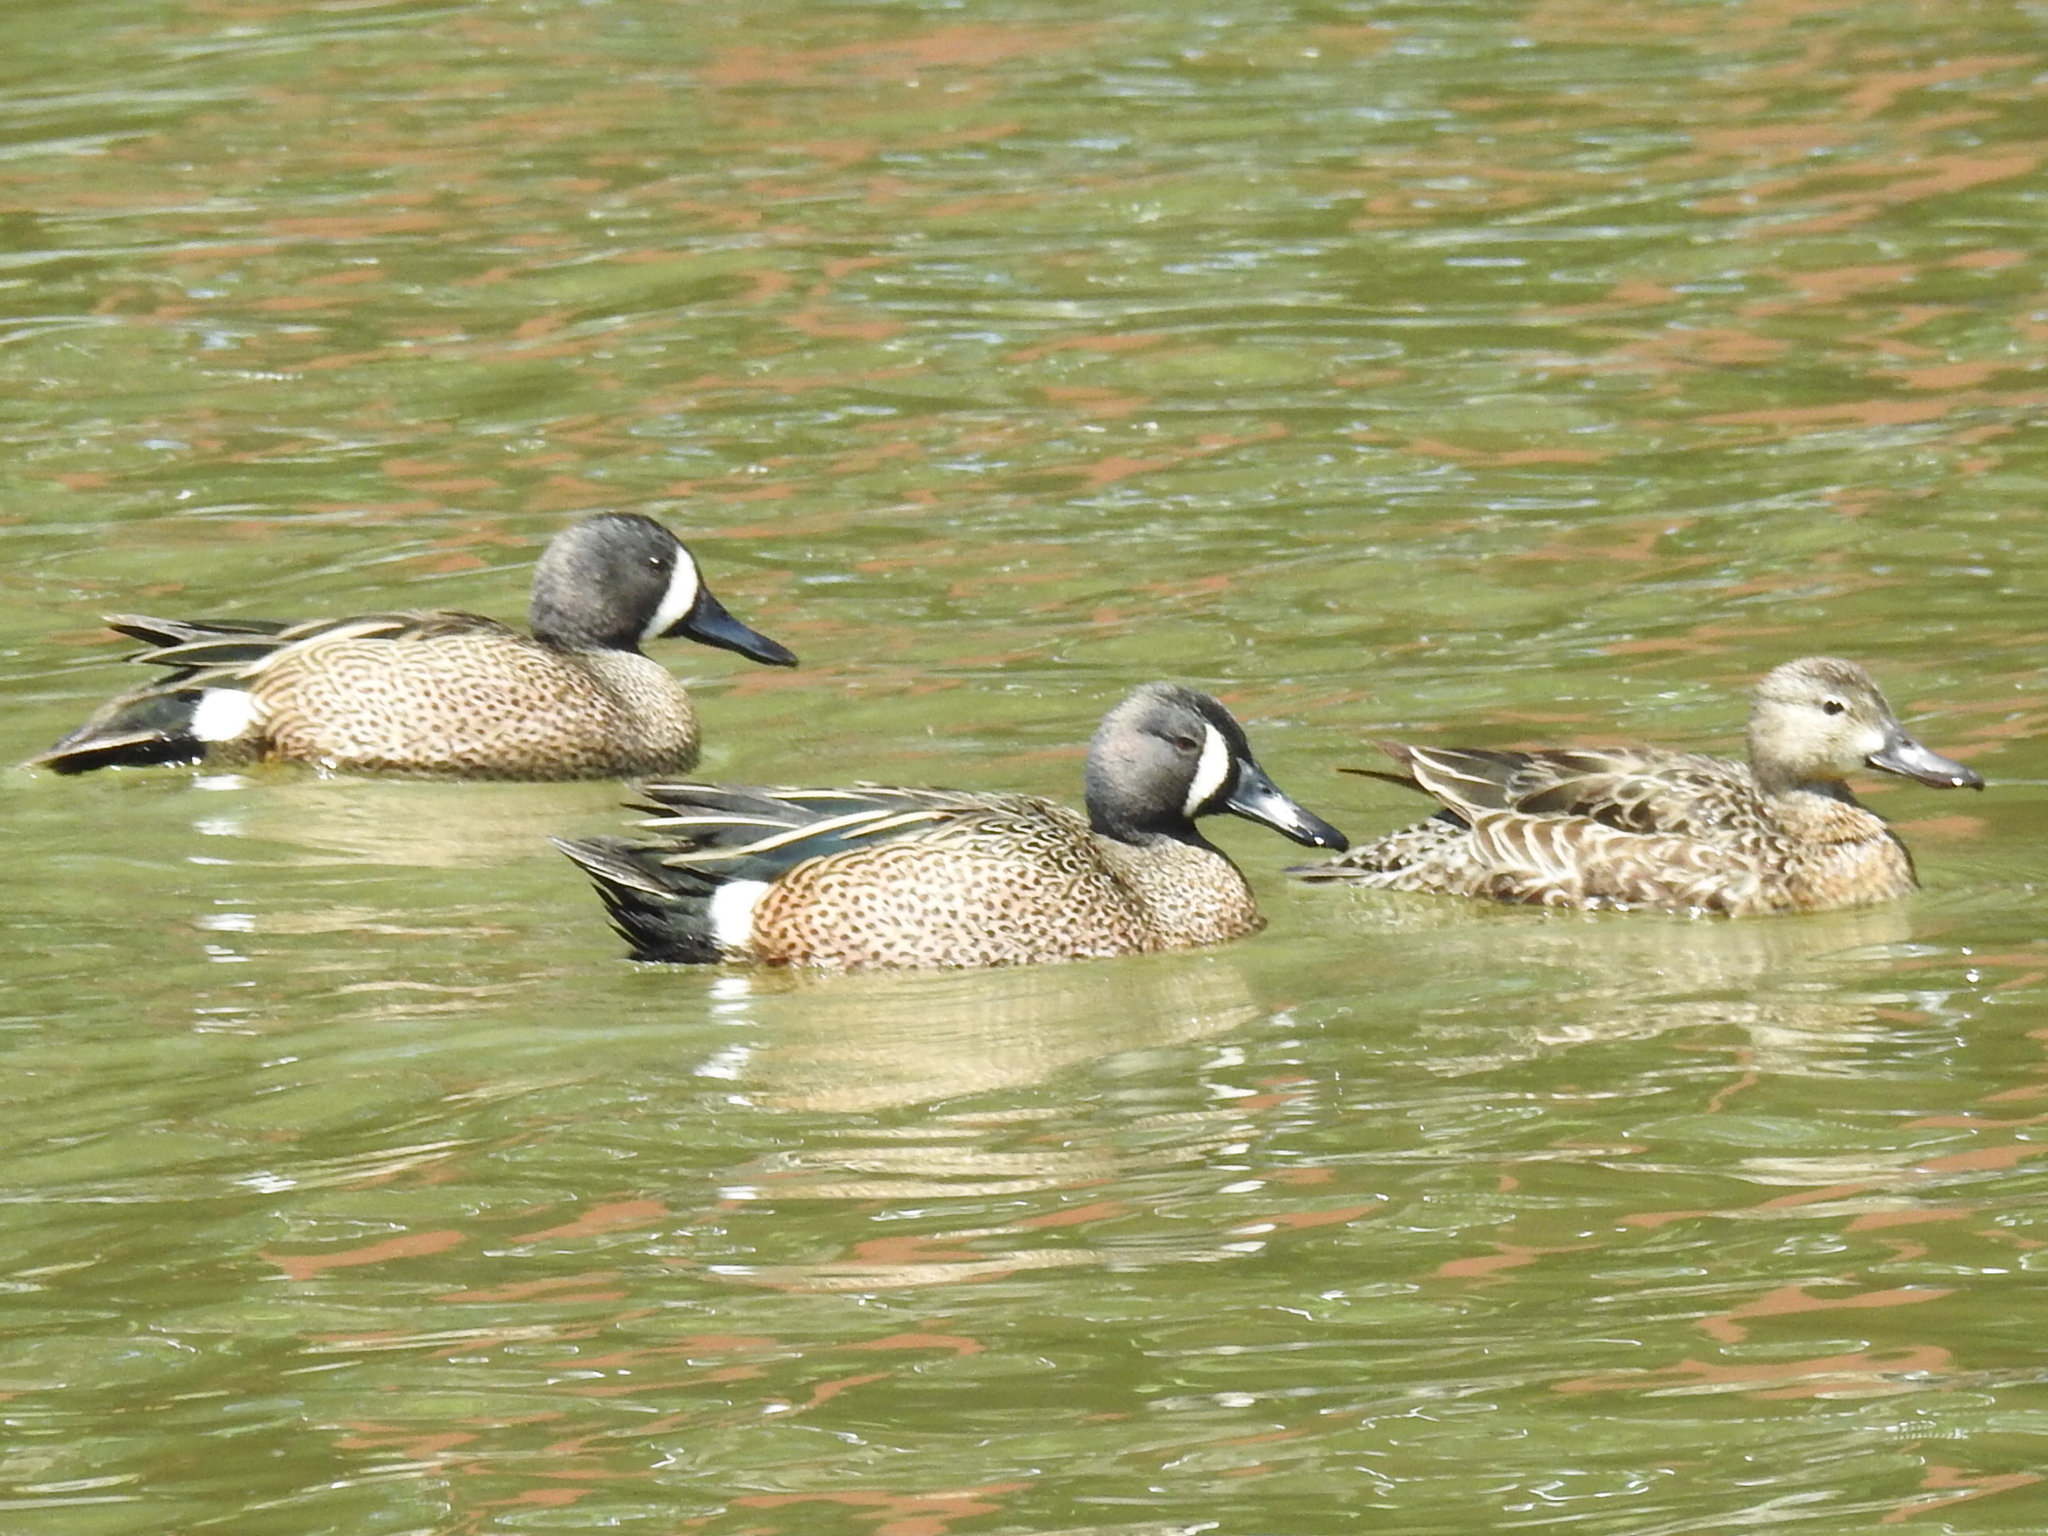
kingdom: Animalia
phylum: Chordata
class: Aves
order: Anseriformes
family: Anatidae
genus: Spatula
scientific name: Spatula discors
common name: Blue-winged teal
